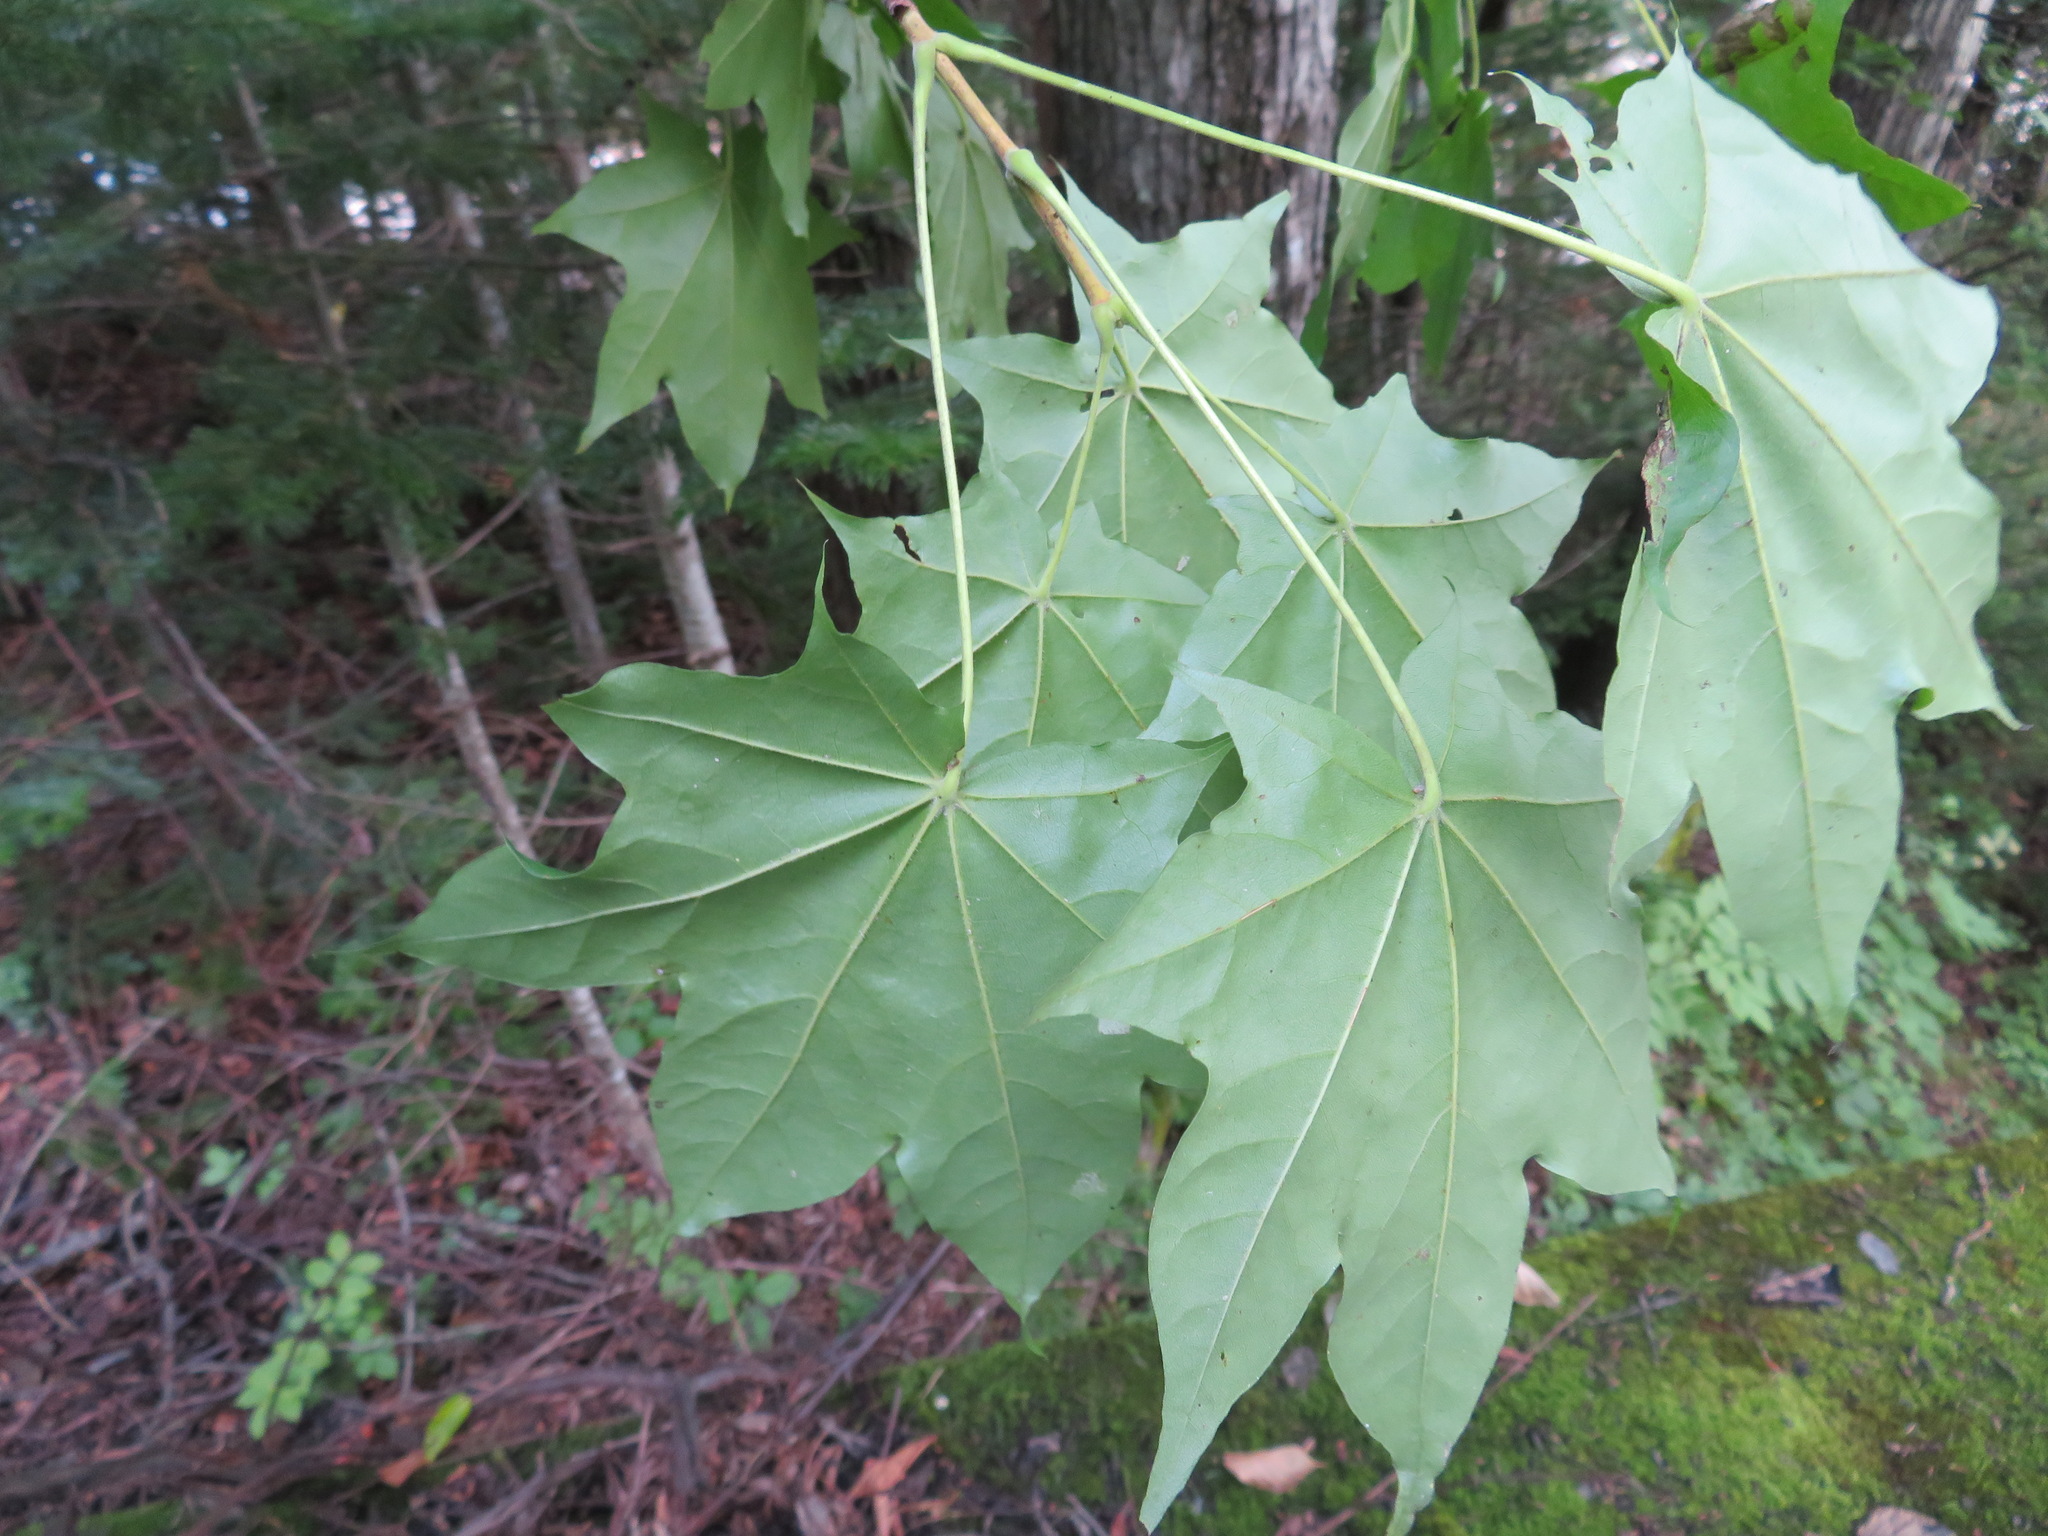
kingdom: Plantae
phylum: Tracheophyta
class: Magnoliopsida
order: Sapindales
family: Sapindaceae
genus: Acer
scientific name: Acer pictum
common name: The painted maple
